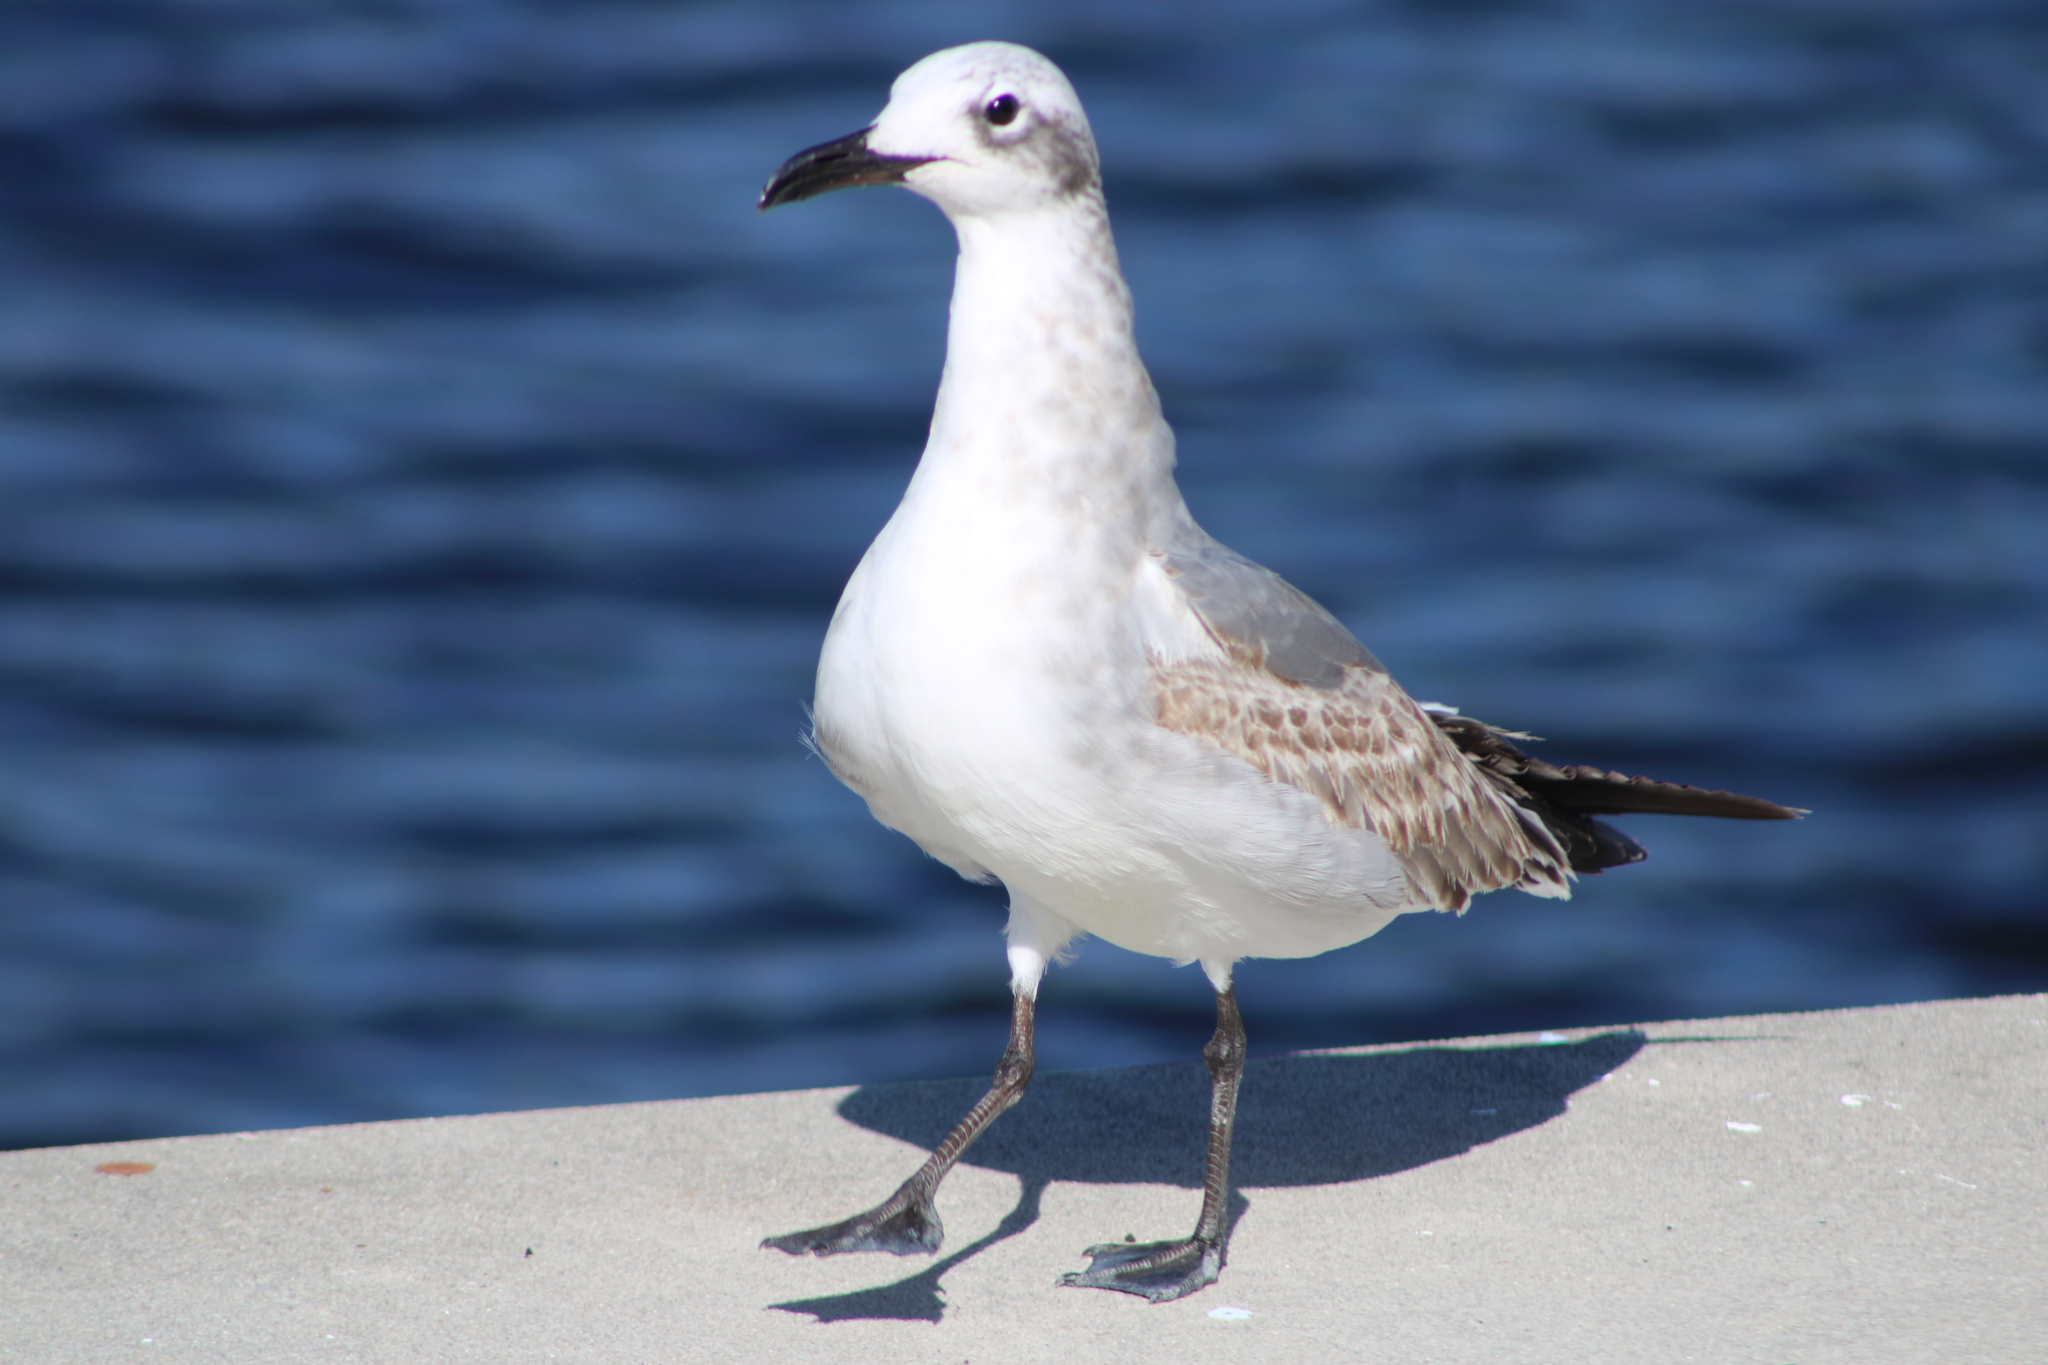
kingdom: Animalia
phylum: Chordata
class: Aves
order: Charadriiformes
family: Laridae
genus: Leucophaeus
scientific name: Leucophaeus atricilla
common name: Laughing gull
